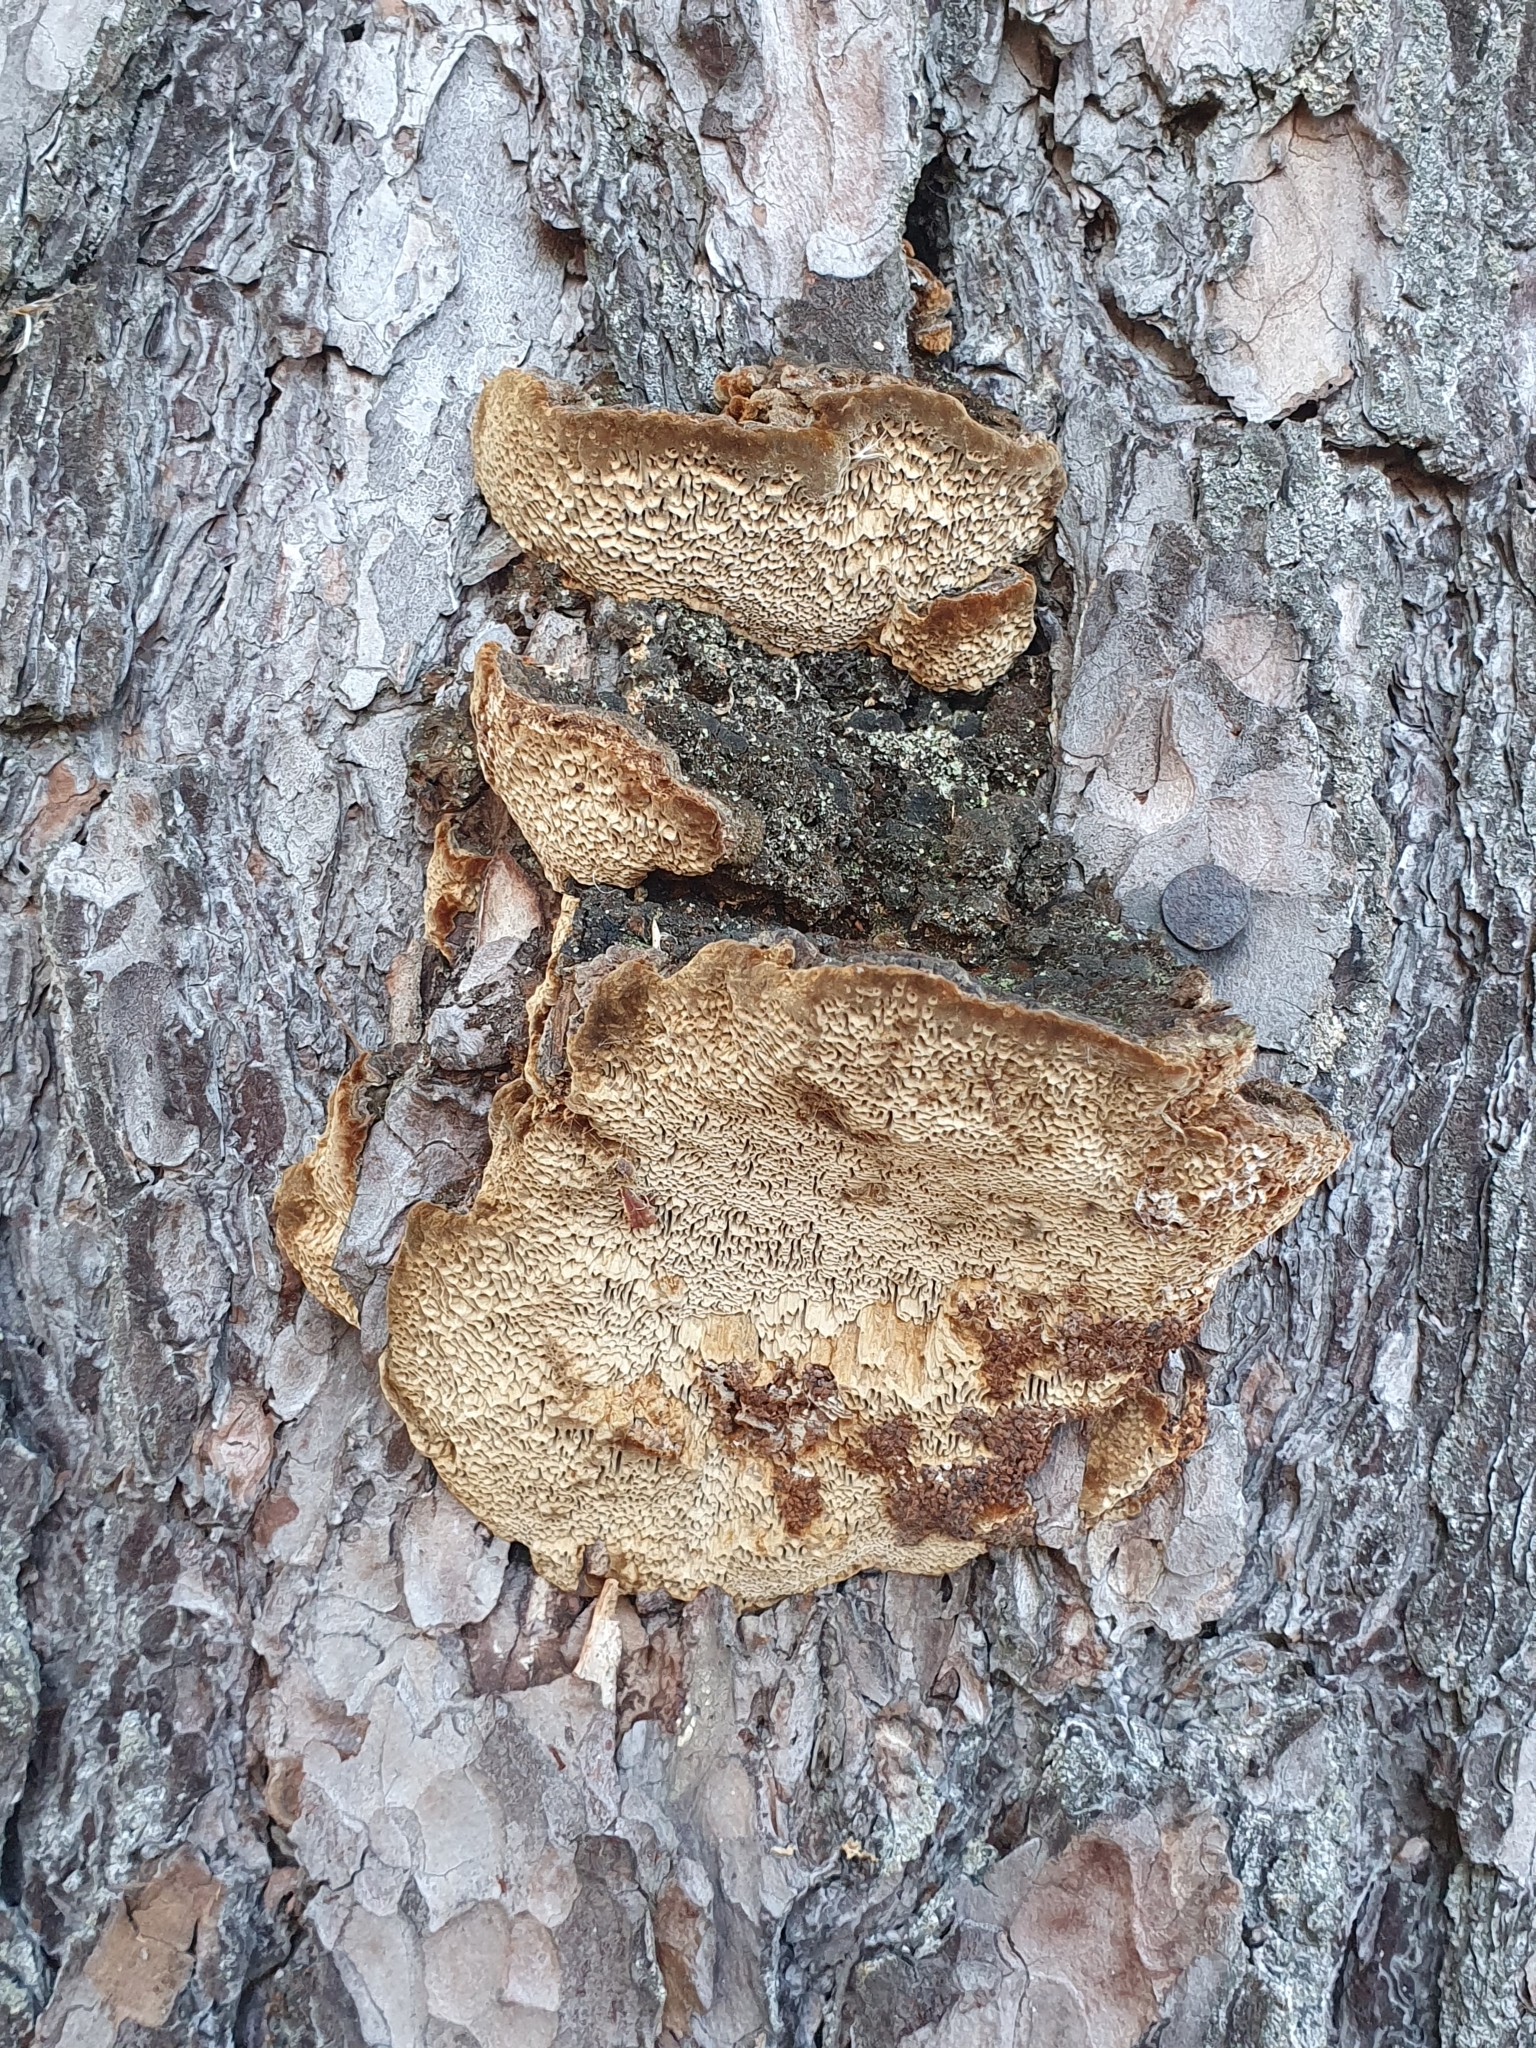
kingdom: Fungi
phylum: Basidiomycota
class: Agaricomycetes
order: Hymenochaetales
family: Hymenochaetaceae
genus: Porodaedalea
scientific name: Porodaedalea pini
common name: Pine bracket
